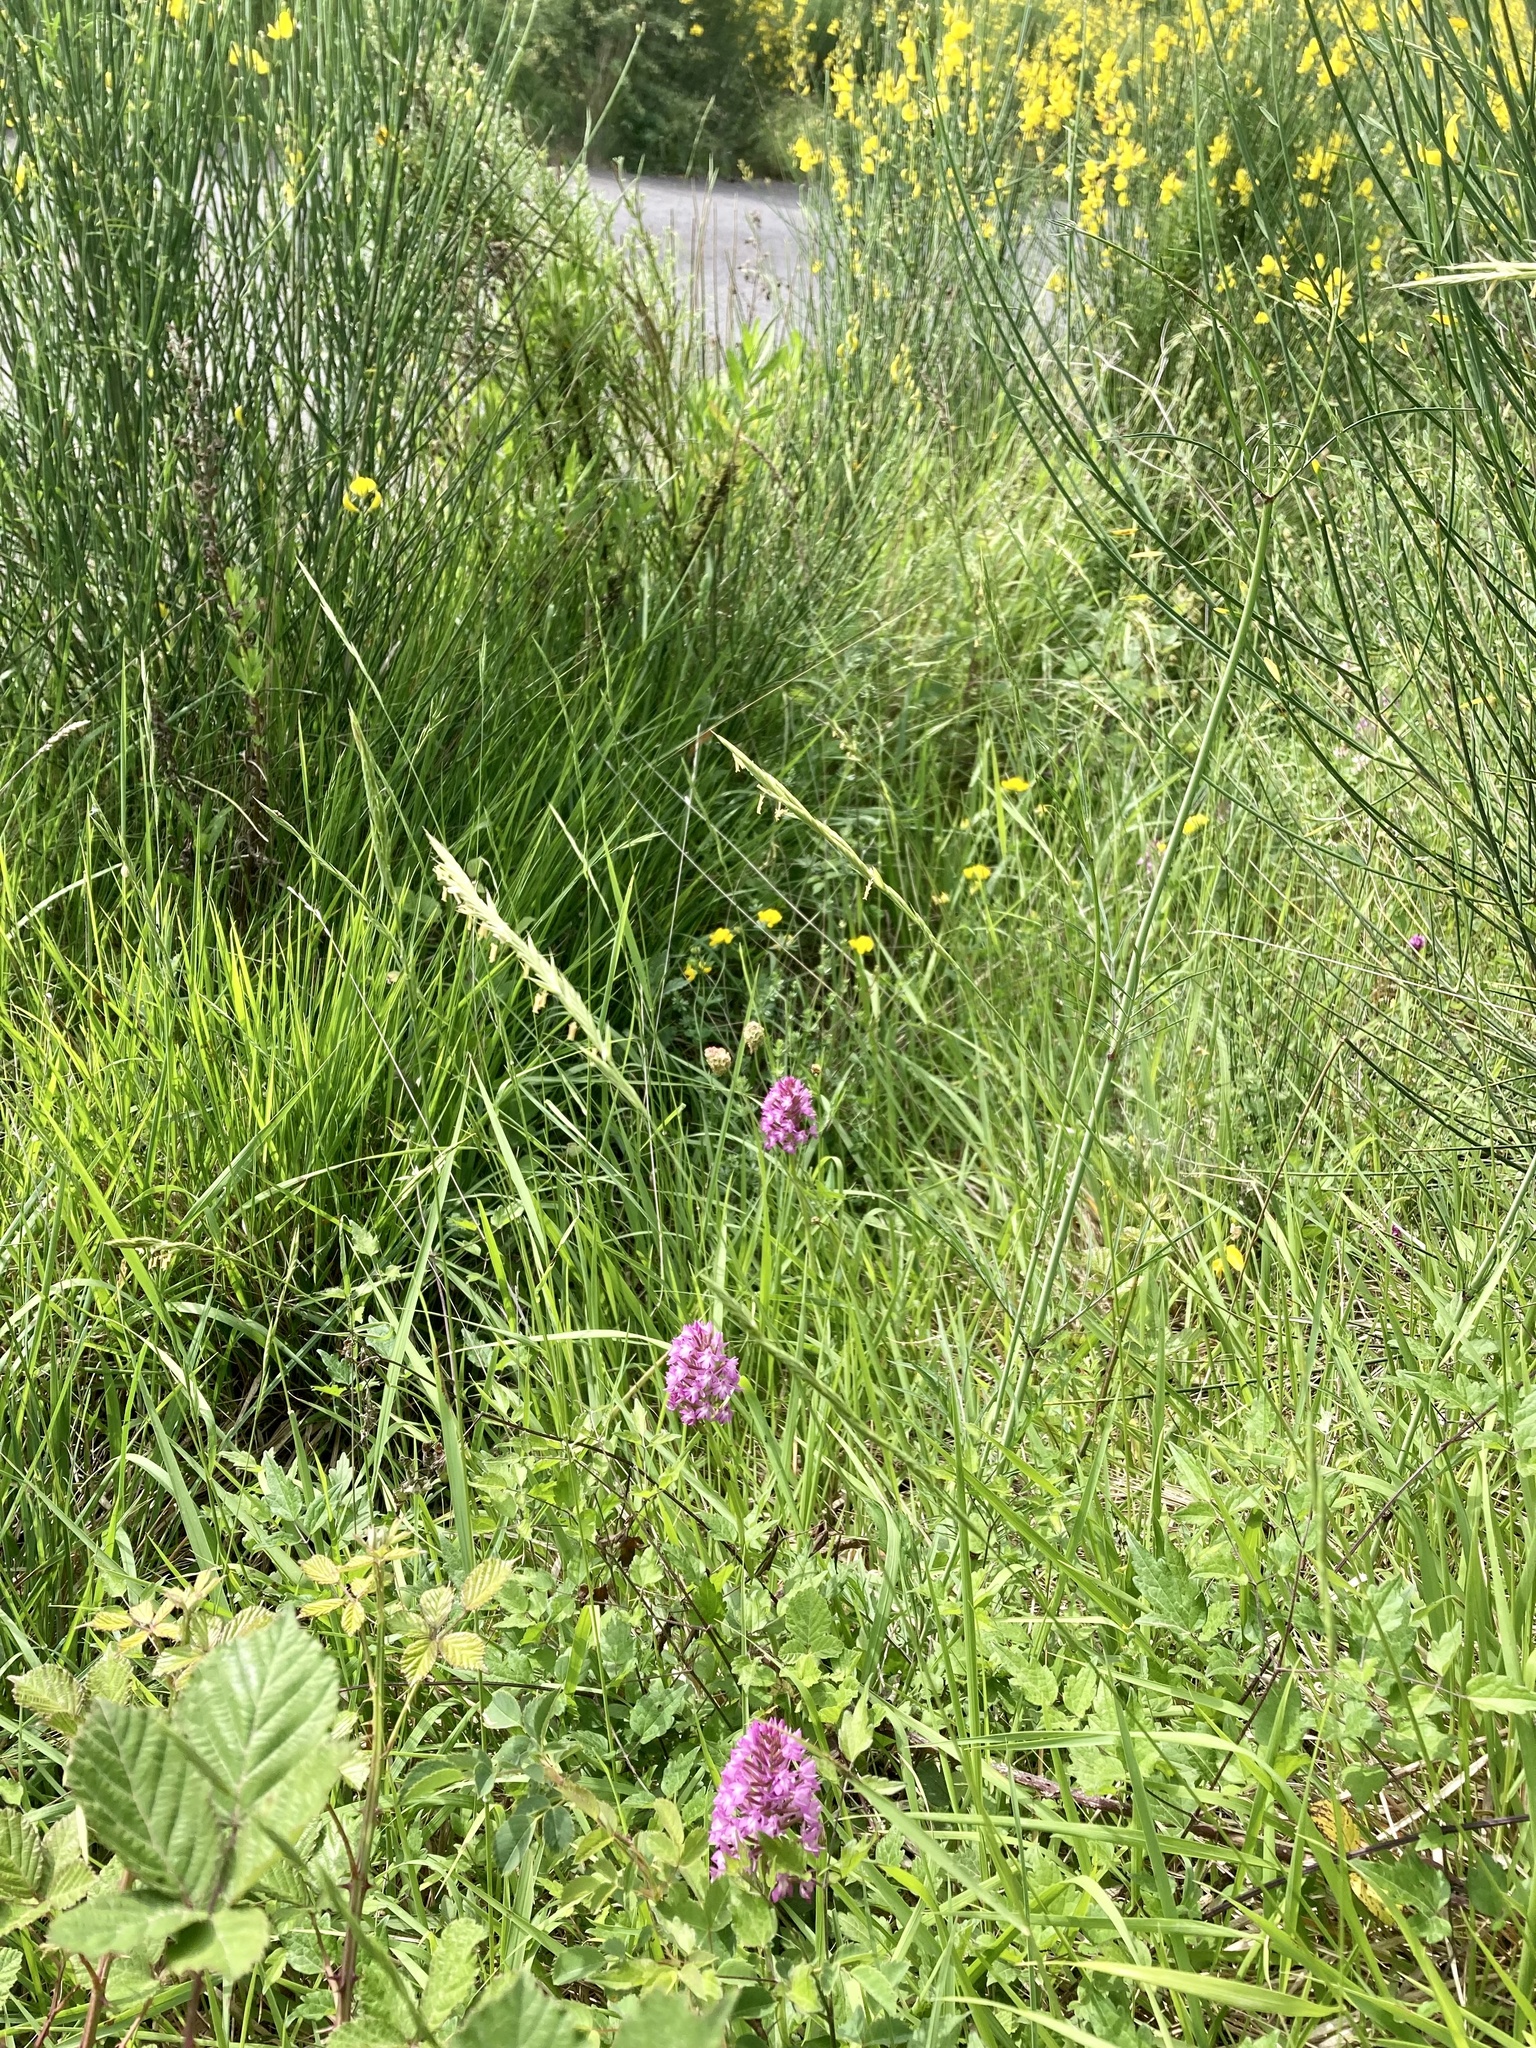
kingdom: Plantae
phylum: Tracheophyta
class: Liliopsida
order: Asparagales
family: Orchidaceae
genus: Anacamptis
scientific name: Anacamptis pyramidalis
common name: Pyramidal orchid
